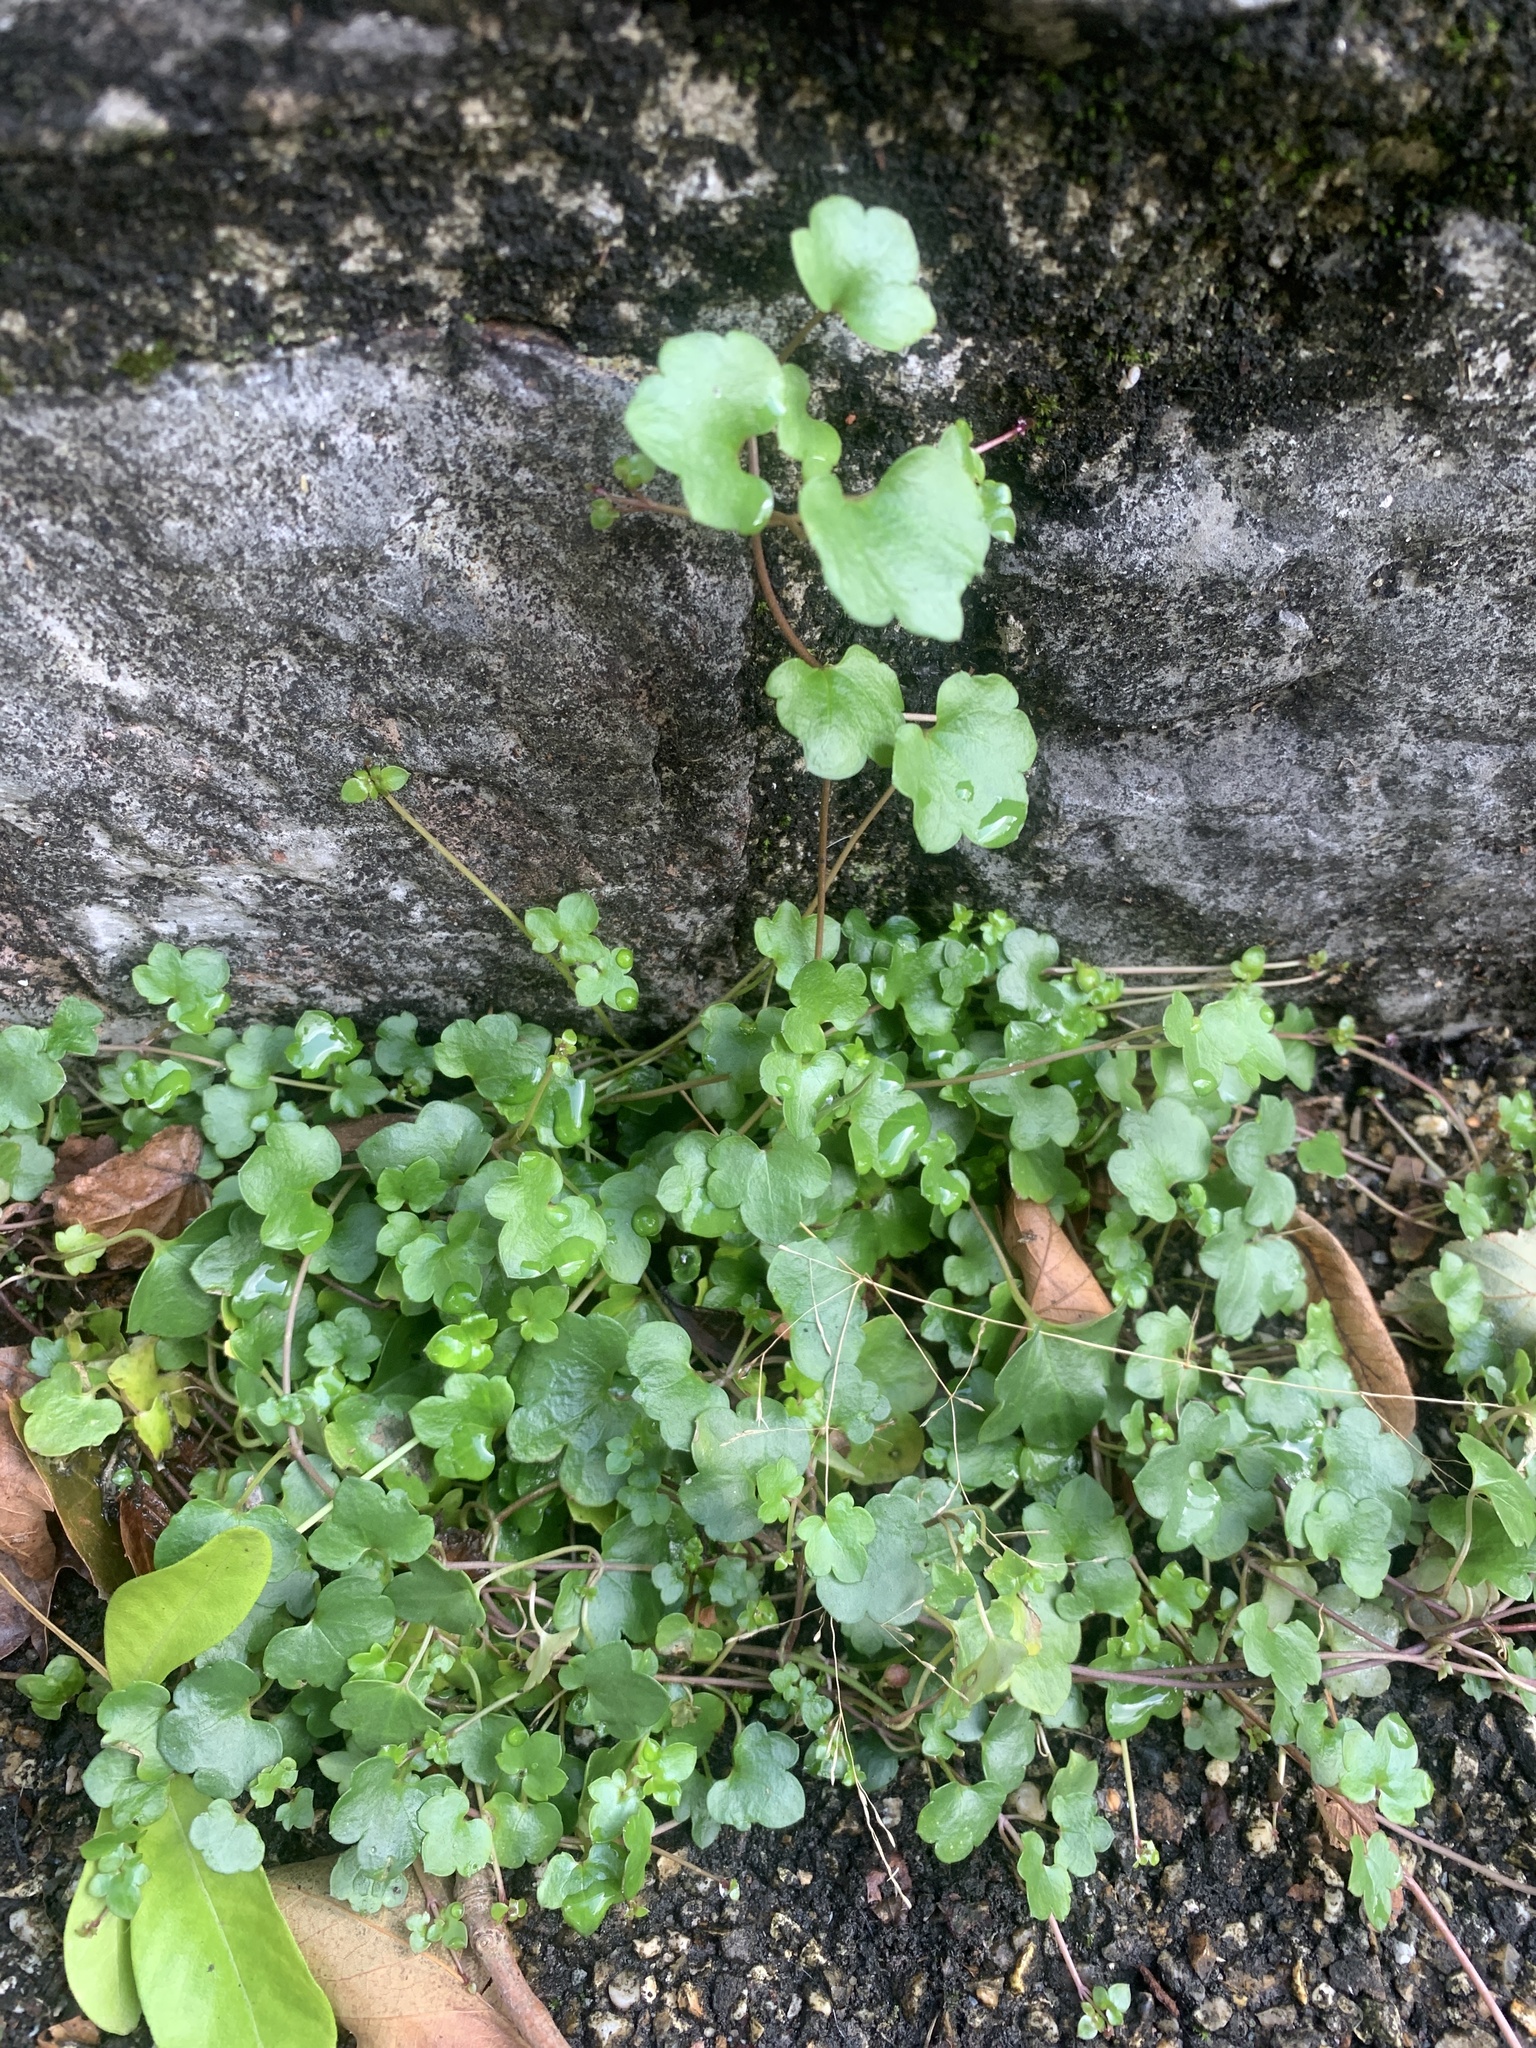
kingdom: Plantae
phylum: Tracheophyta
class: Magnoliopsida
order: Lamiales
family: Plantaginaceae
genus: Cymbalaria
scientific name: Cymbalaria muralis
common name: Ivy-leaved toadflax
